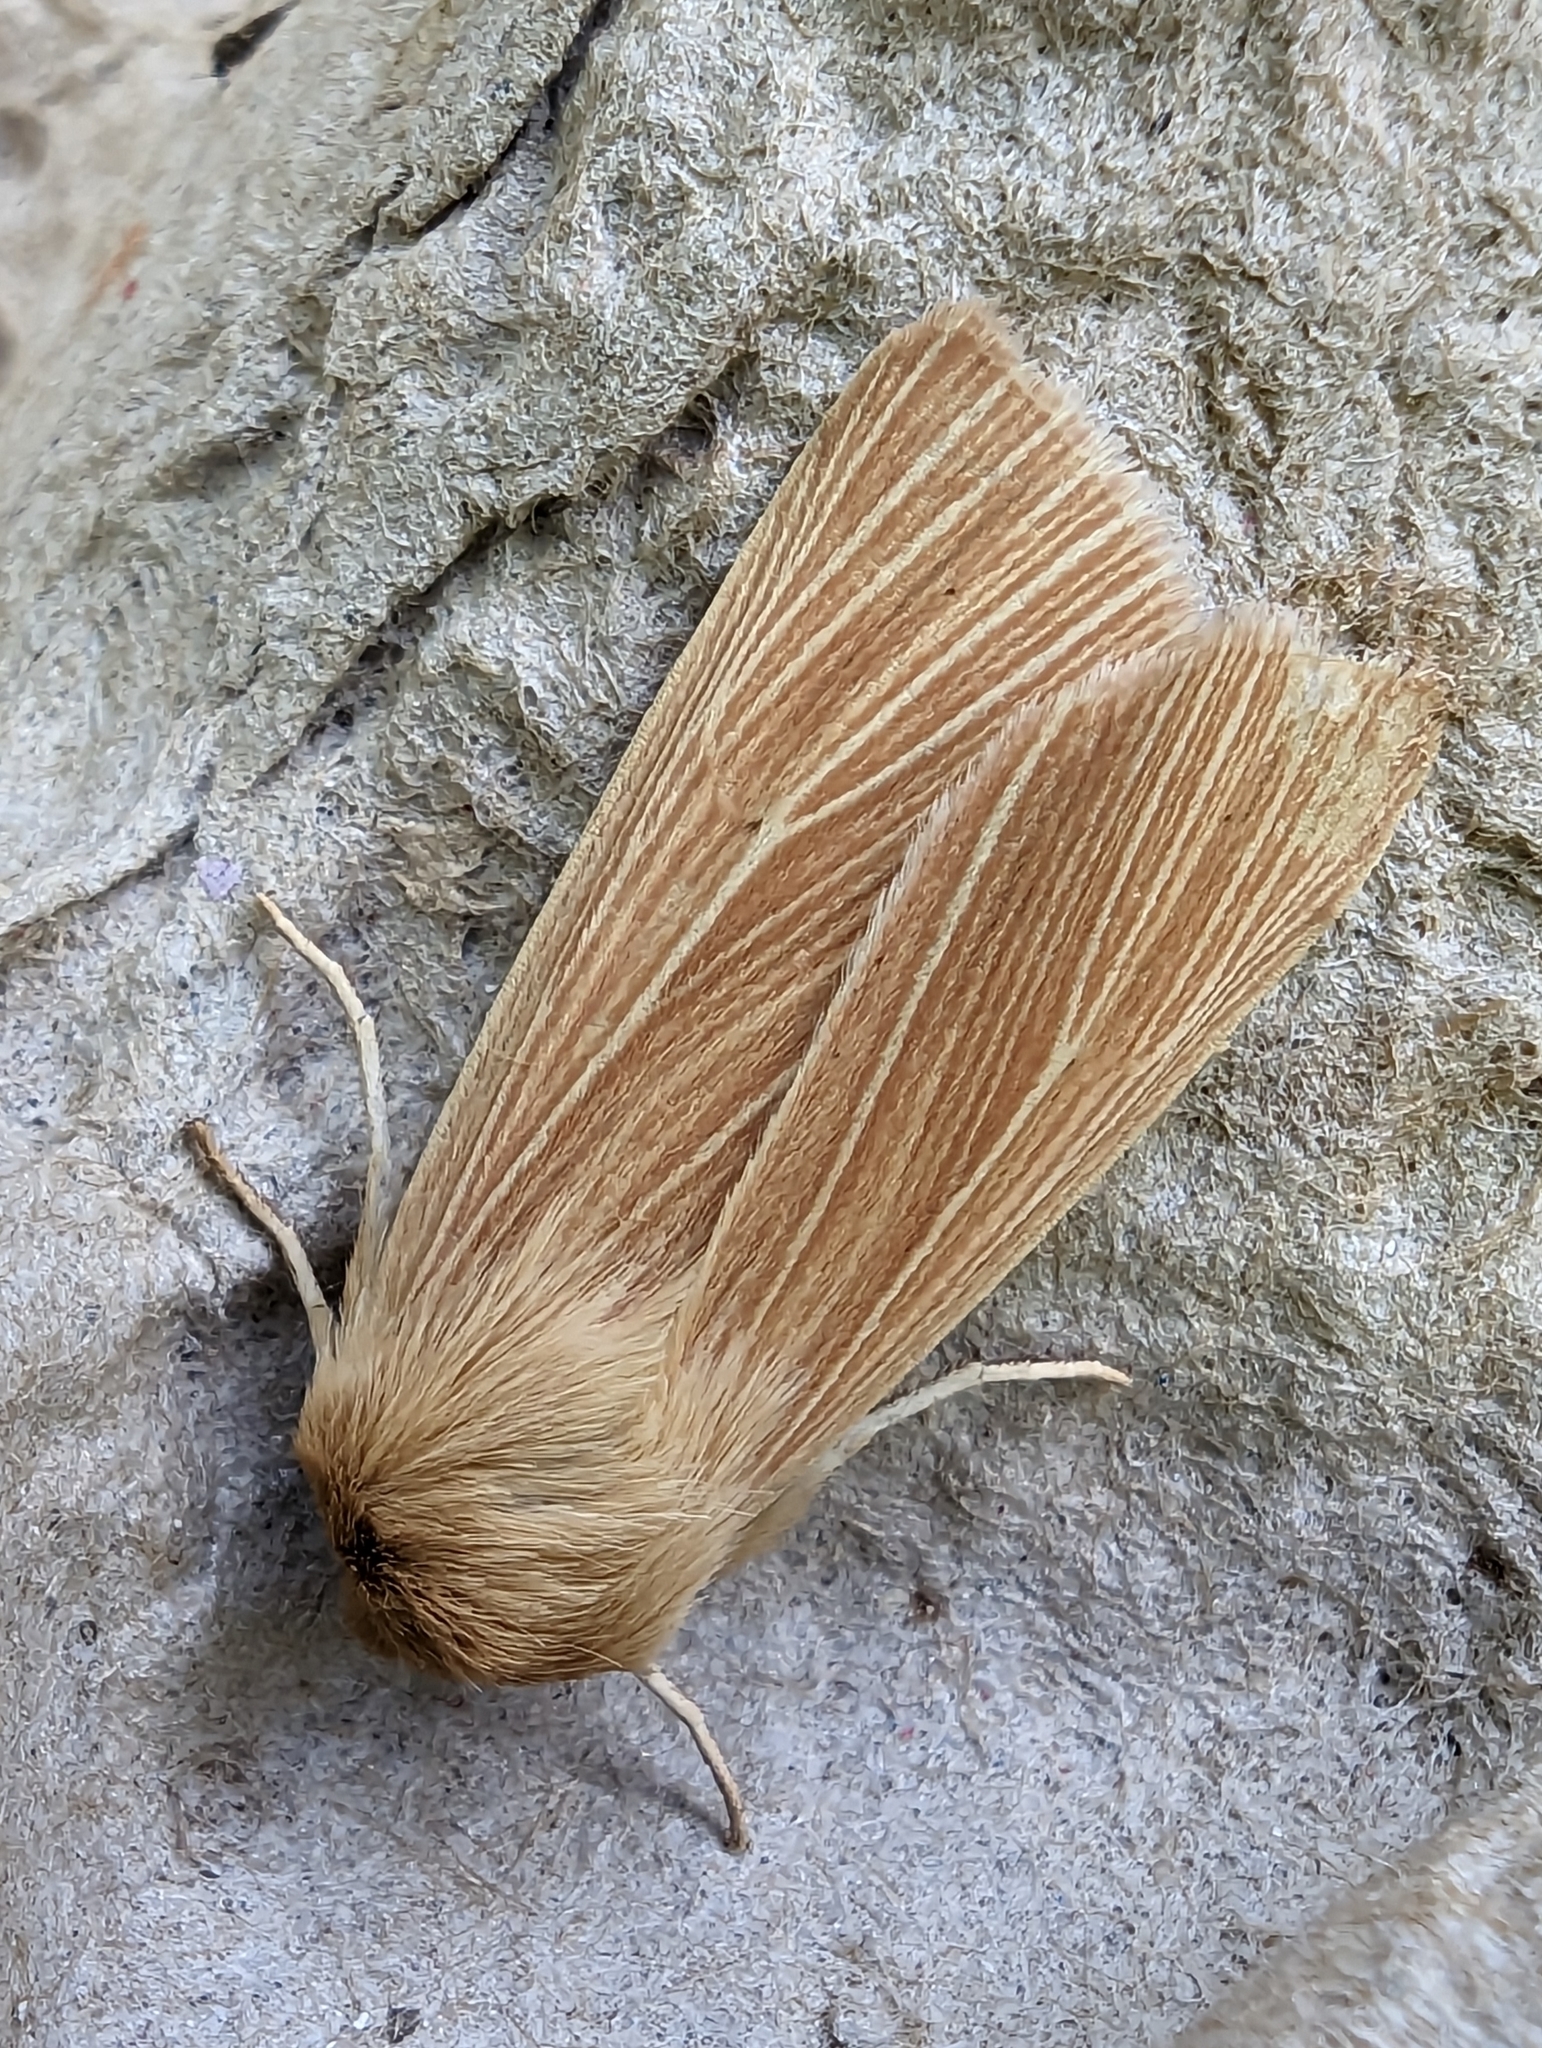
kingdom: Animalia
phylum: Arthropoda
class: Insecta
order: Lepidoptera
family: Noctuidae
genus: Mythimna
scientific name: Mythimna pallens
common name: Common wainscot
